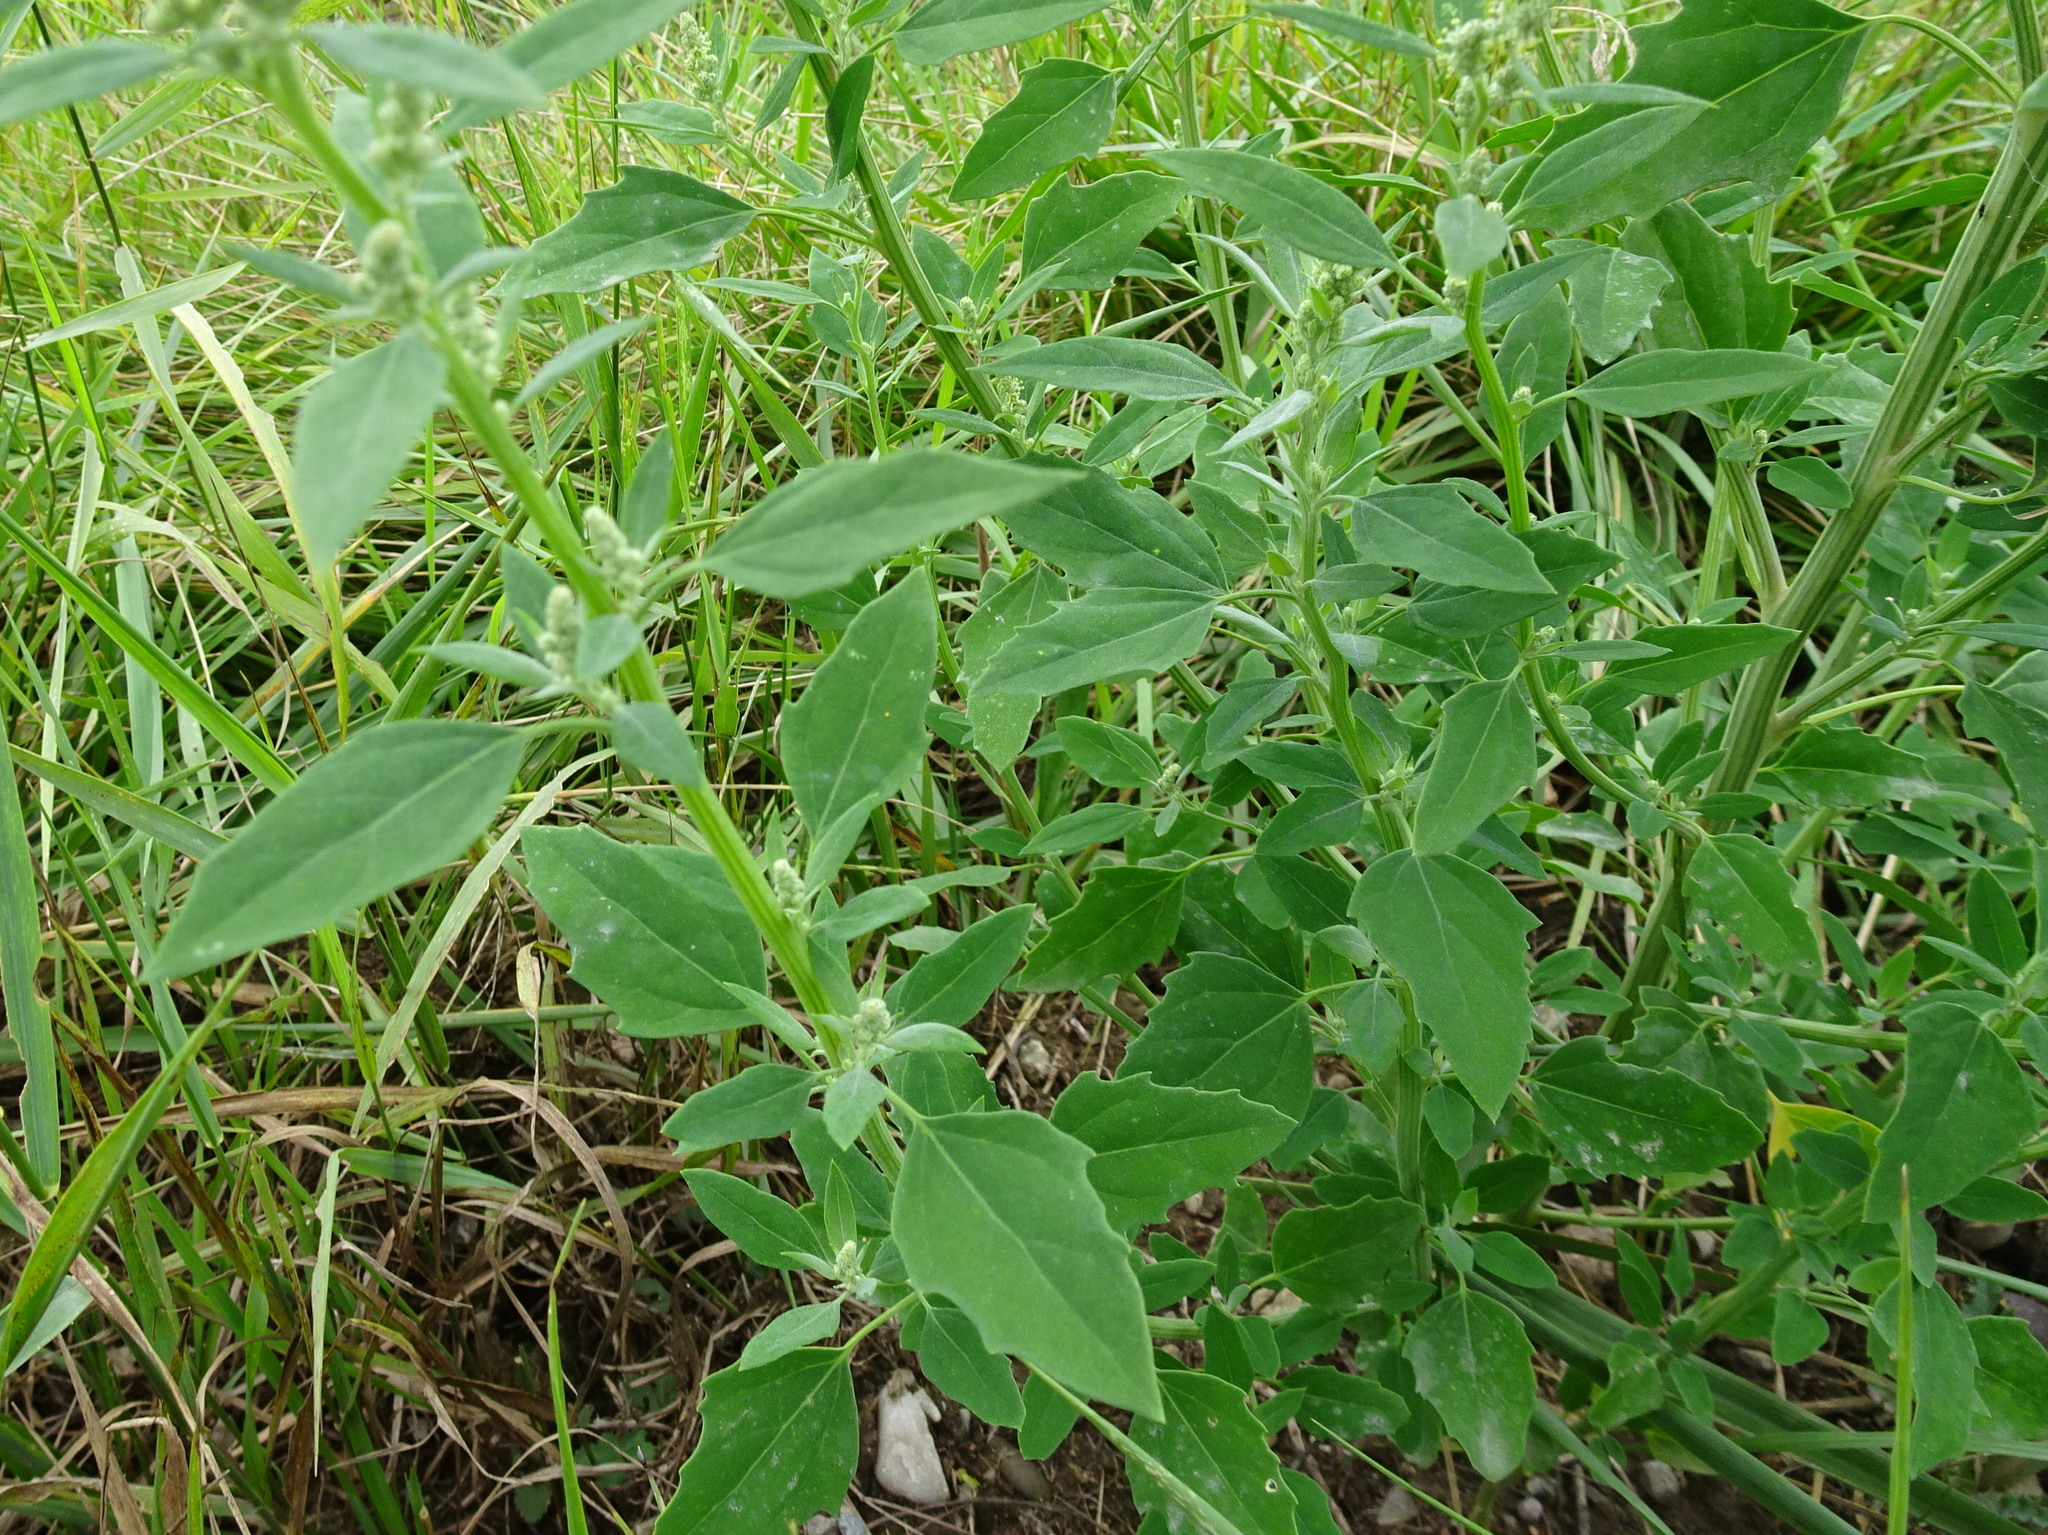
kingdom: Plantae
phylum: Tracheophyta
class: Magnoliopsida
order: Caryophyllales
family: Amaranthaceae
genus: Chenopodium
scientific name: Chenopodium album
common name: Fat-hen
